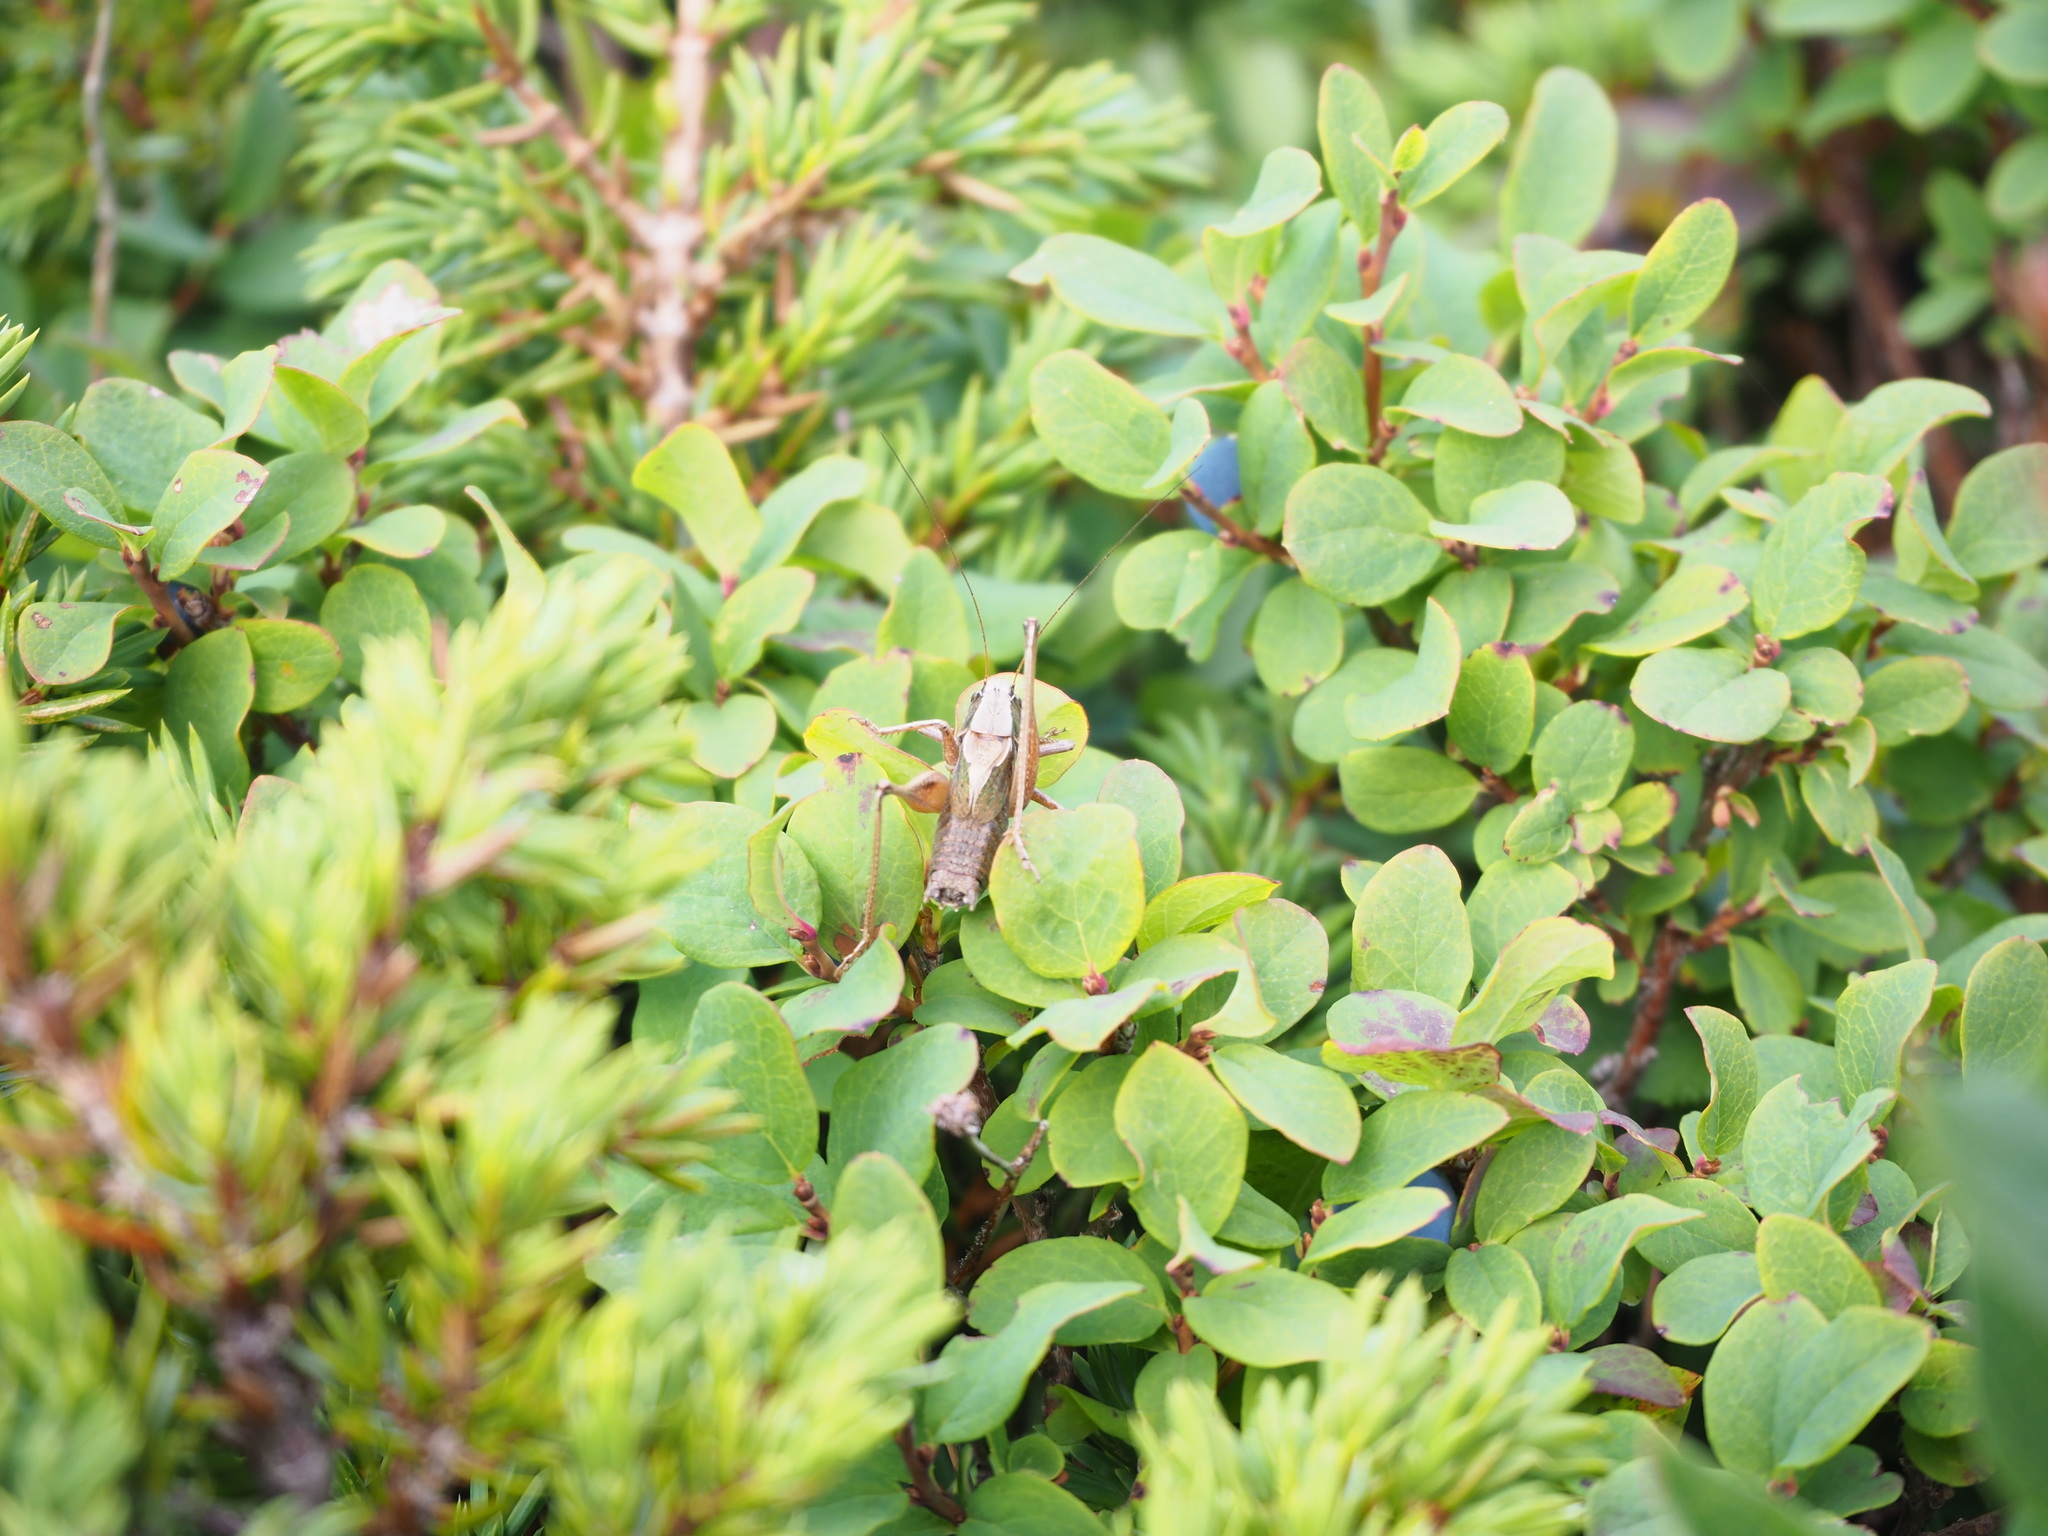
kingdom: Animalia
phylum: Arthropoda
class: Insecta
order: Orthoptera
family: Tettigoniidae
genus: Metrioptera
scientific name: Metrioptera caprai
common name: Italian meadow bush-cricket
